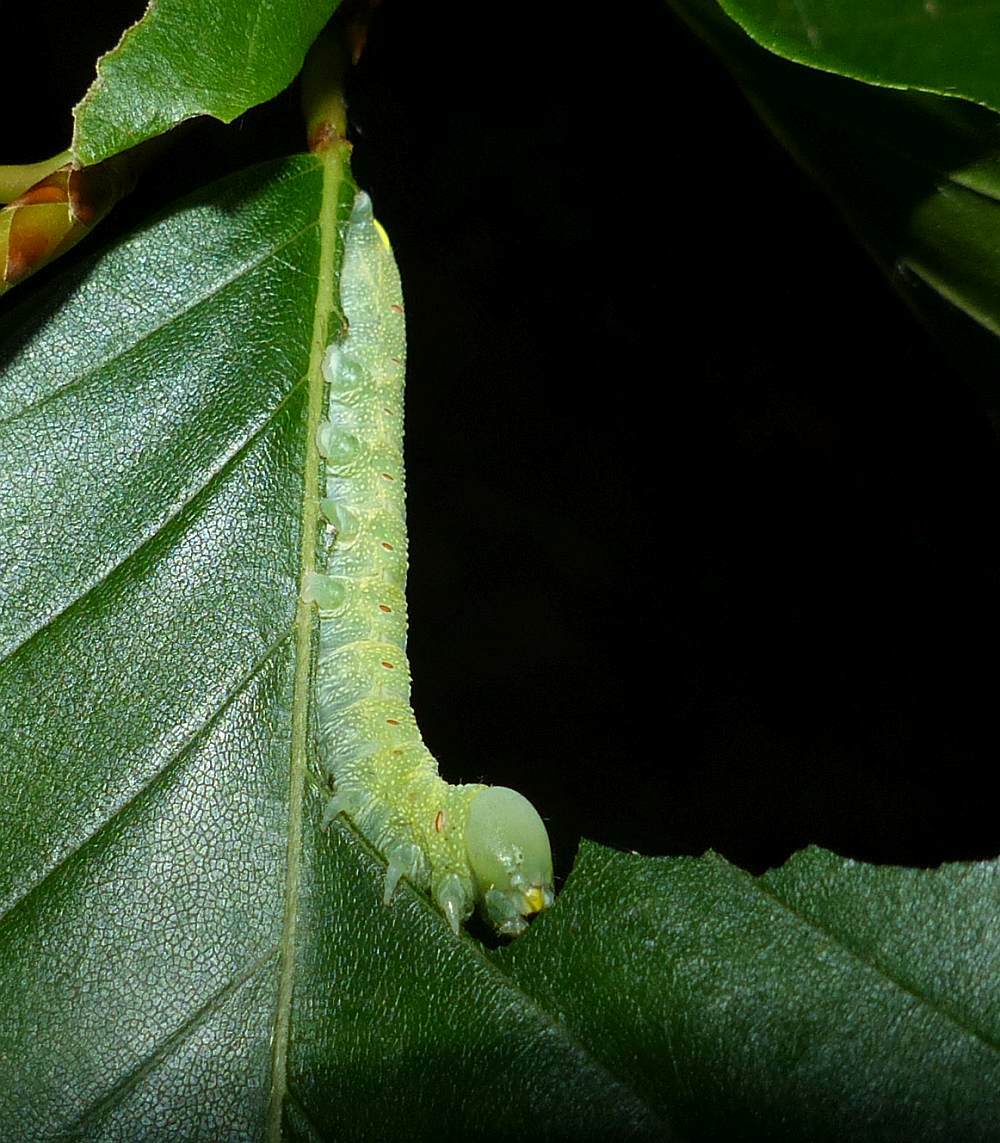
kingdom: Animalia
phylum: Arthropoda
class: Insecta
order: Lepidoptera
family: Notodontidae
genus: Nadata
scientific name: Nadata gibbosa
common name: White-dotted prominent
